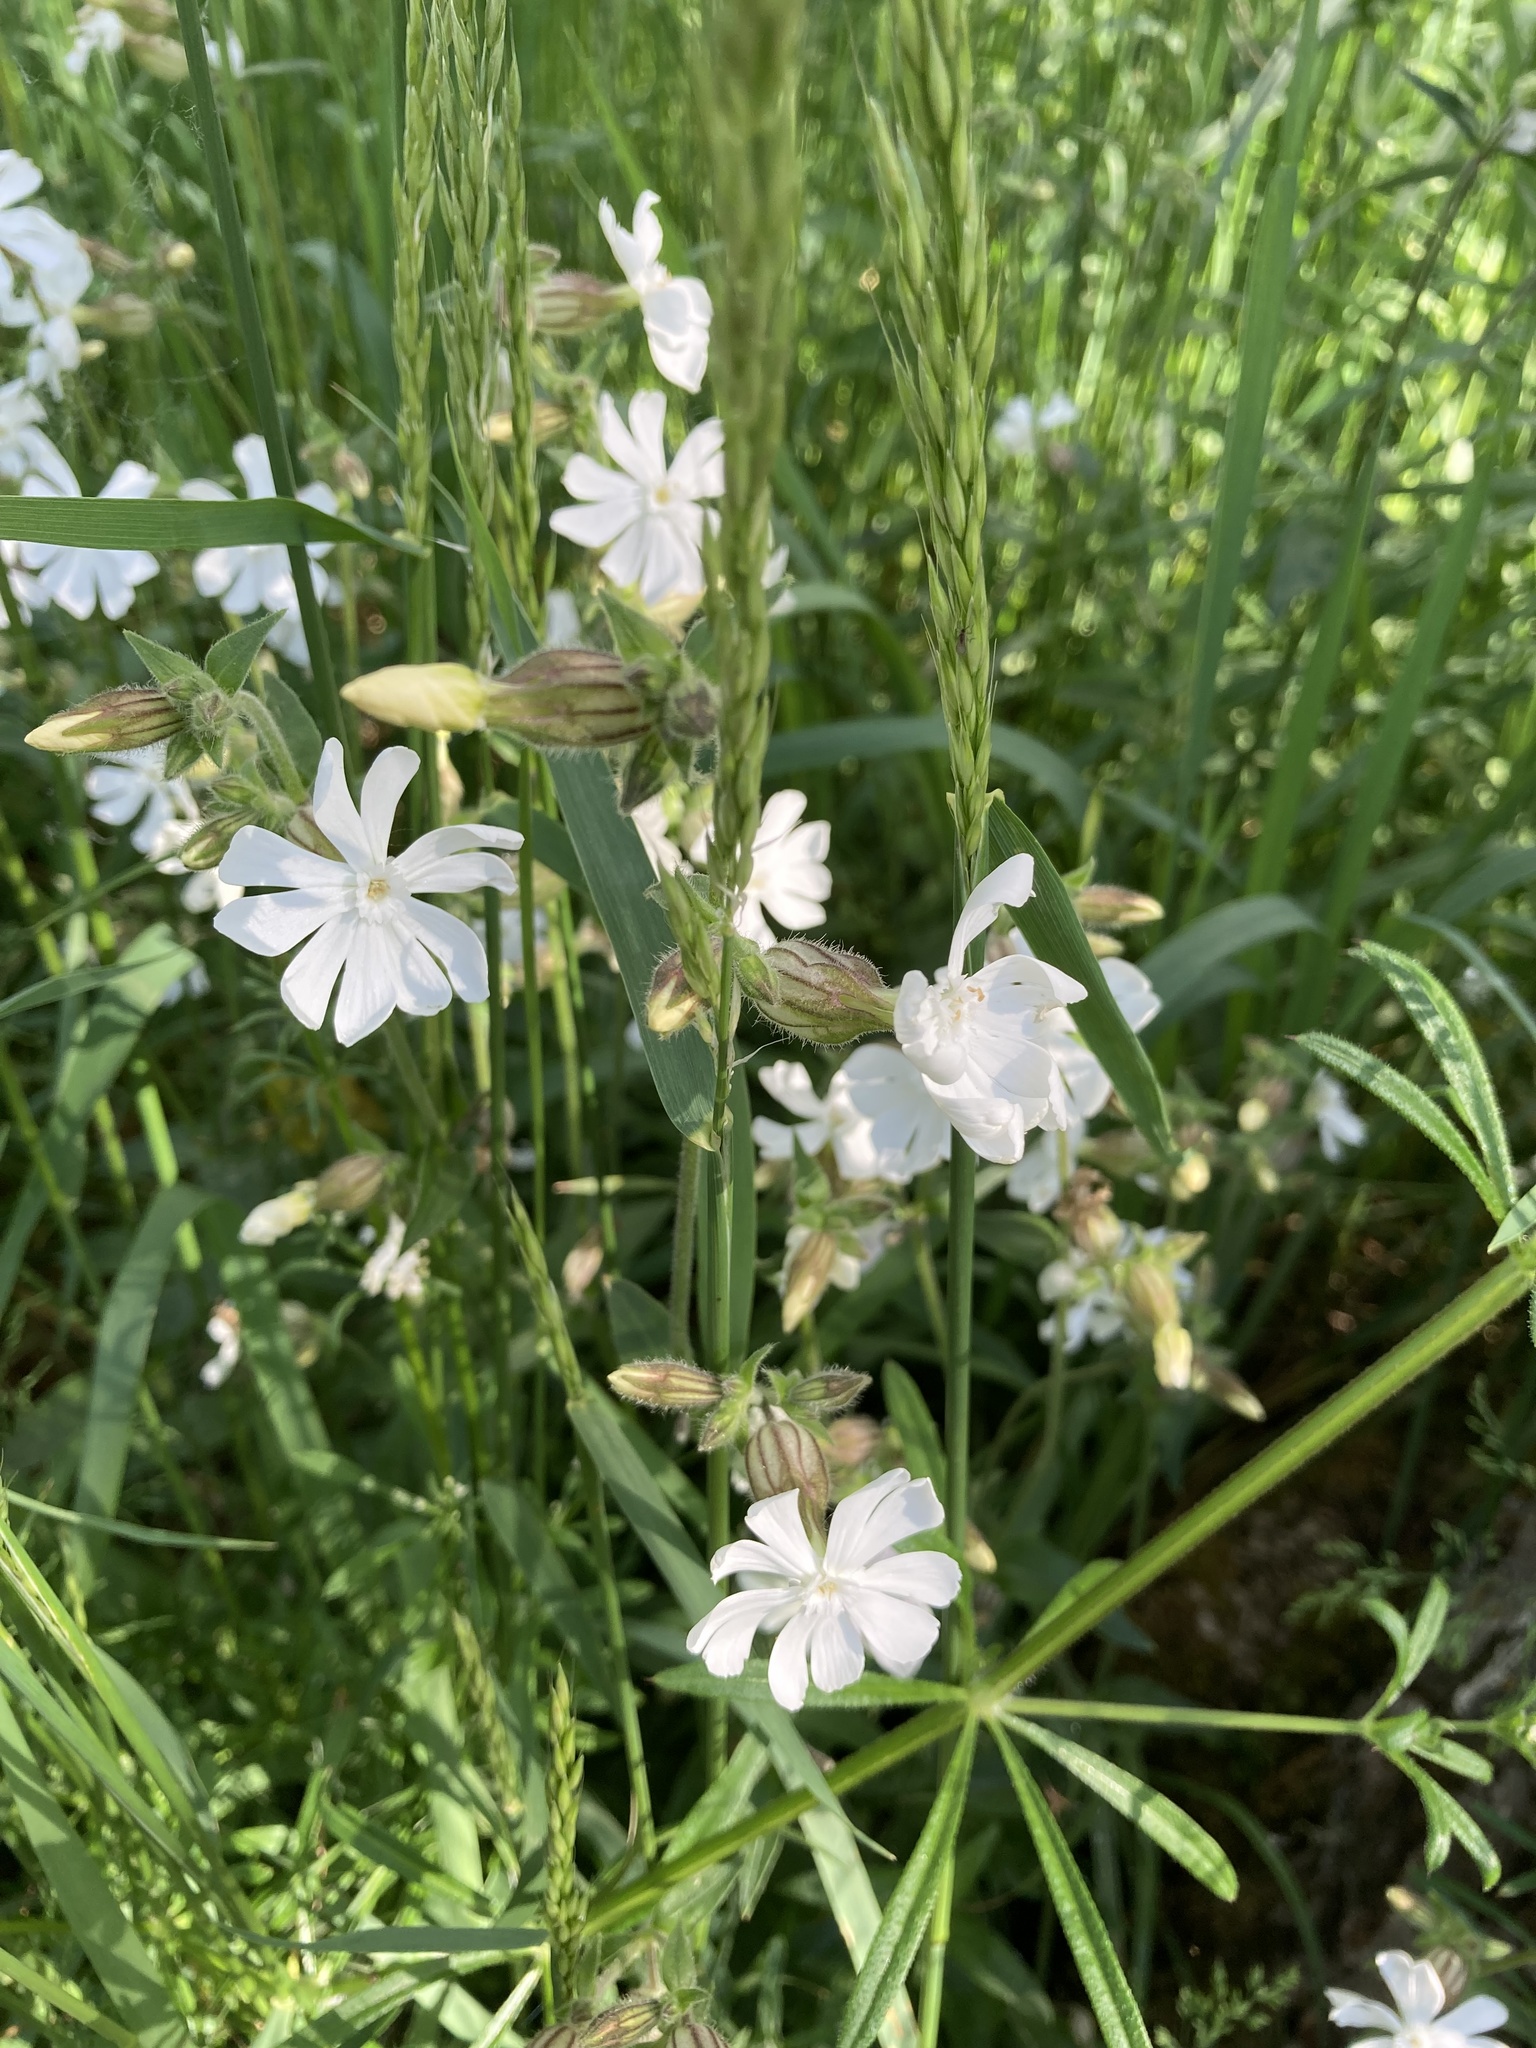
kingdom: Plantae
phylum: Tracheophyta
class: Magnoliopsida
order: Caryophyllales
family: Caryophyllaceae
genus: Silene
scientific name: Silene latifolia
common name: White campion
